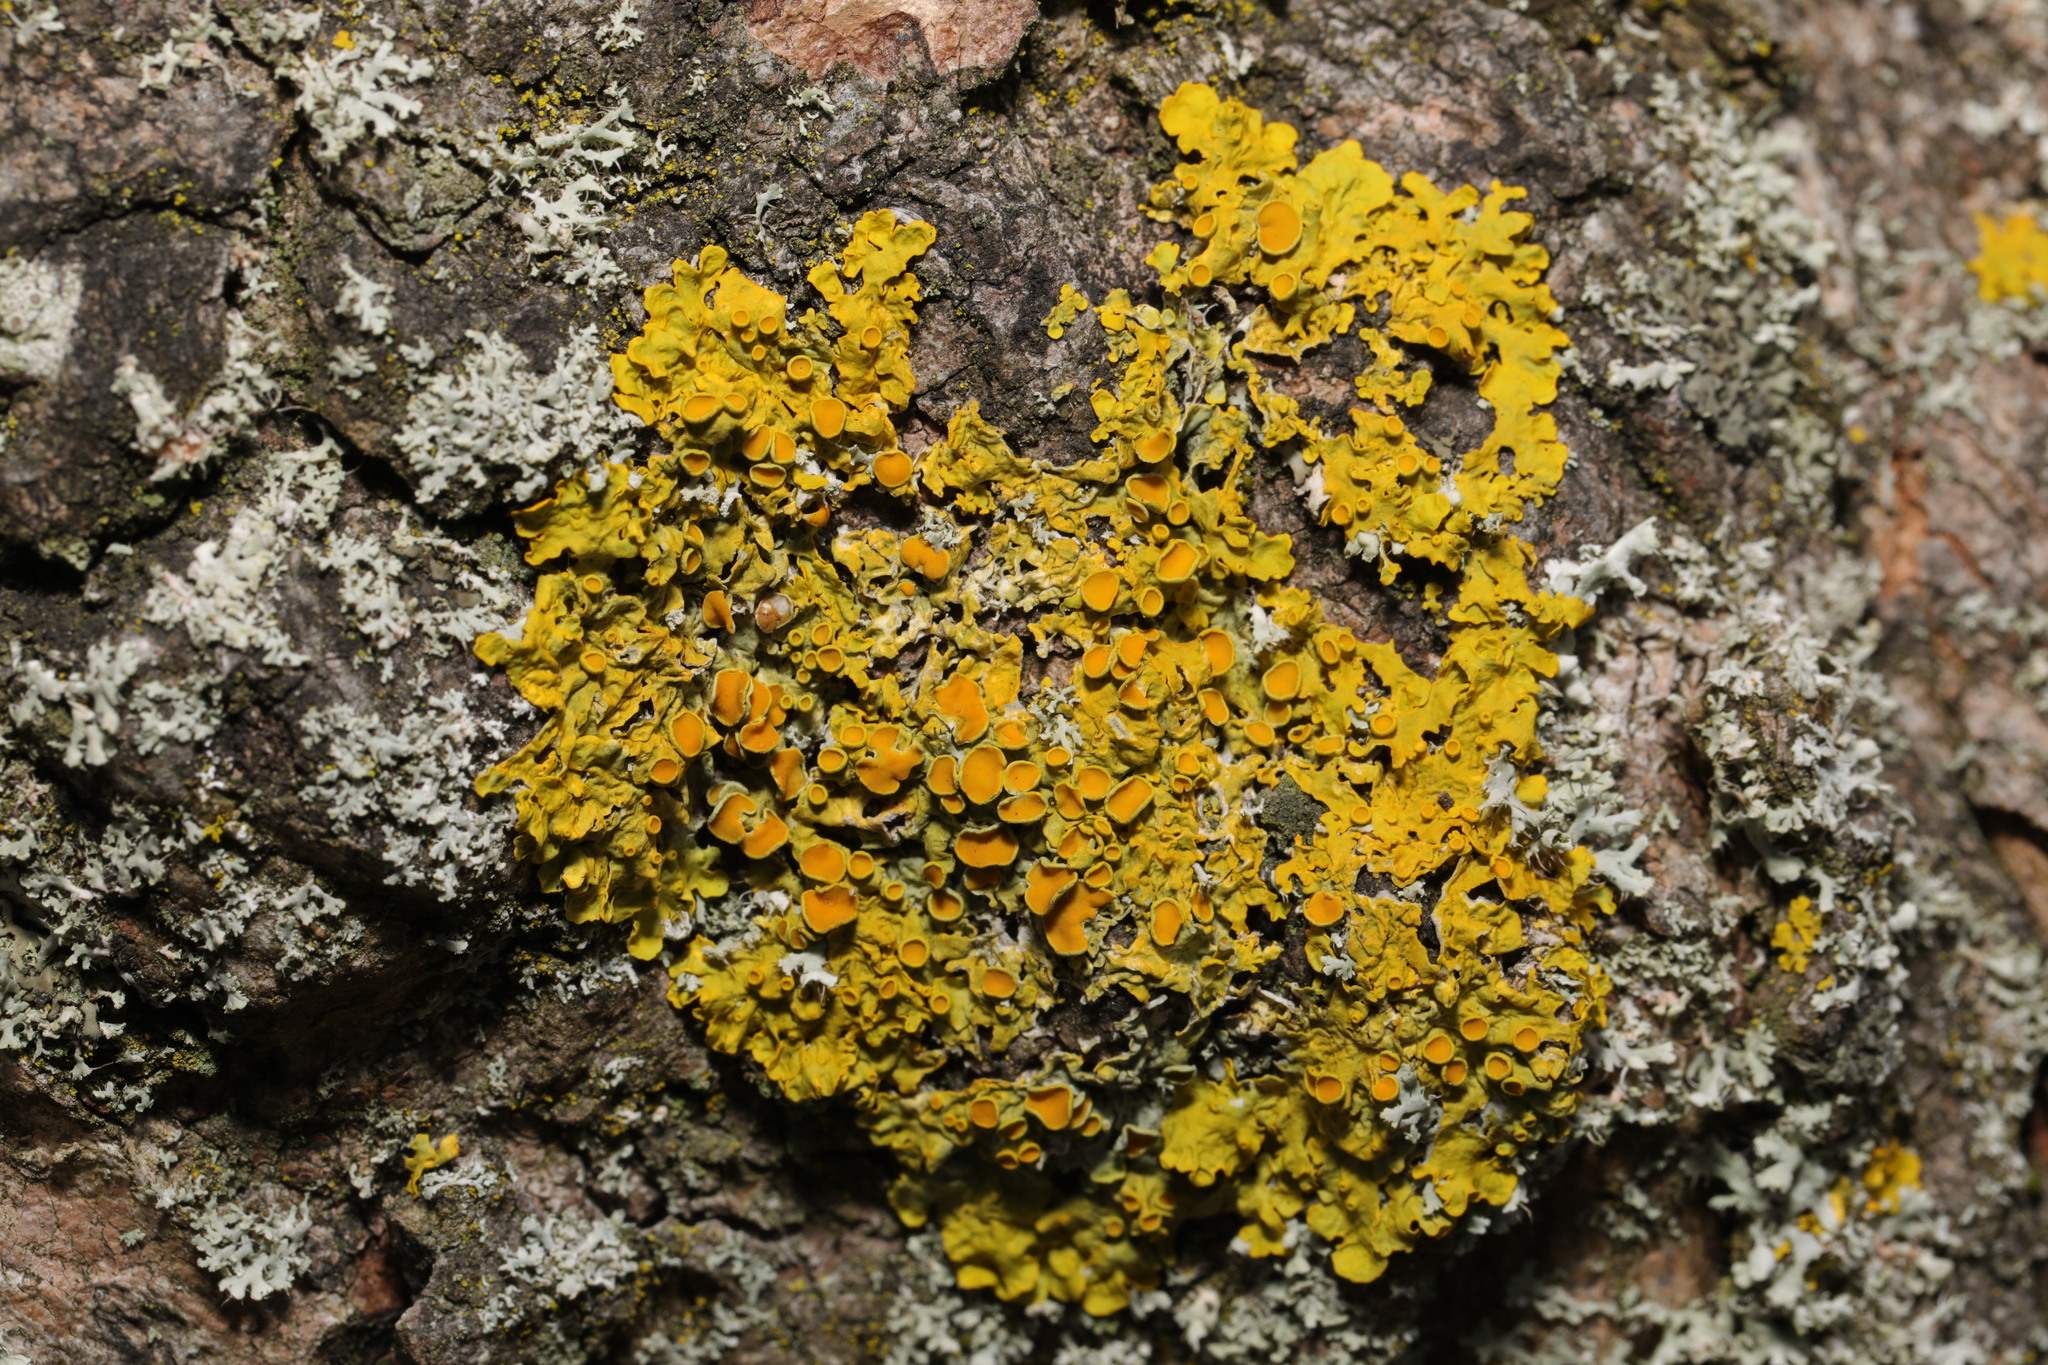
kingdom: Fungi
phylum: Ascomycota
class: Lecanoromycetes
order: Teloschistales
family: Teloschistaceae
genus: Xanthoria
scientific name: Xanthoria parietina
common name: Common orange lichen
